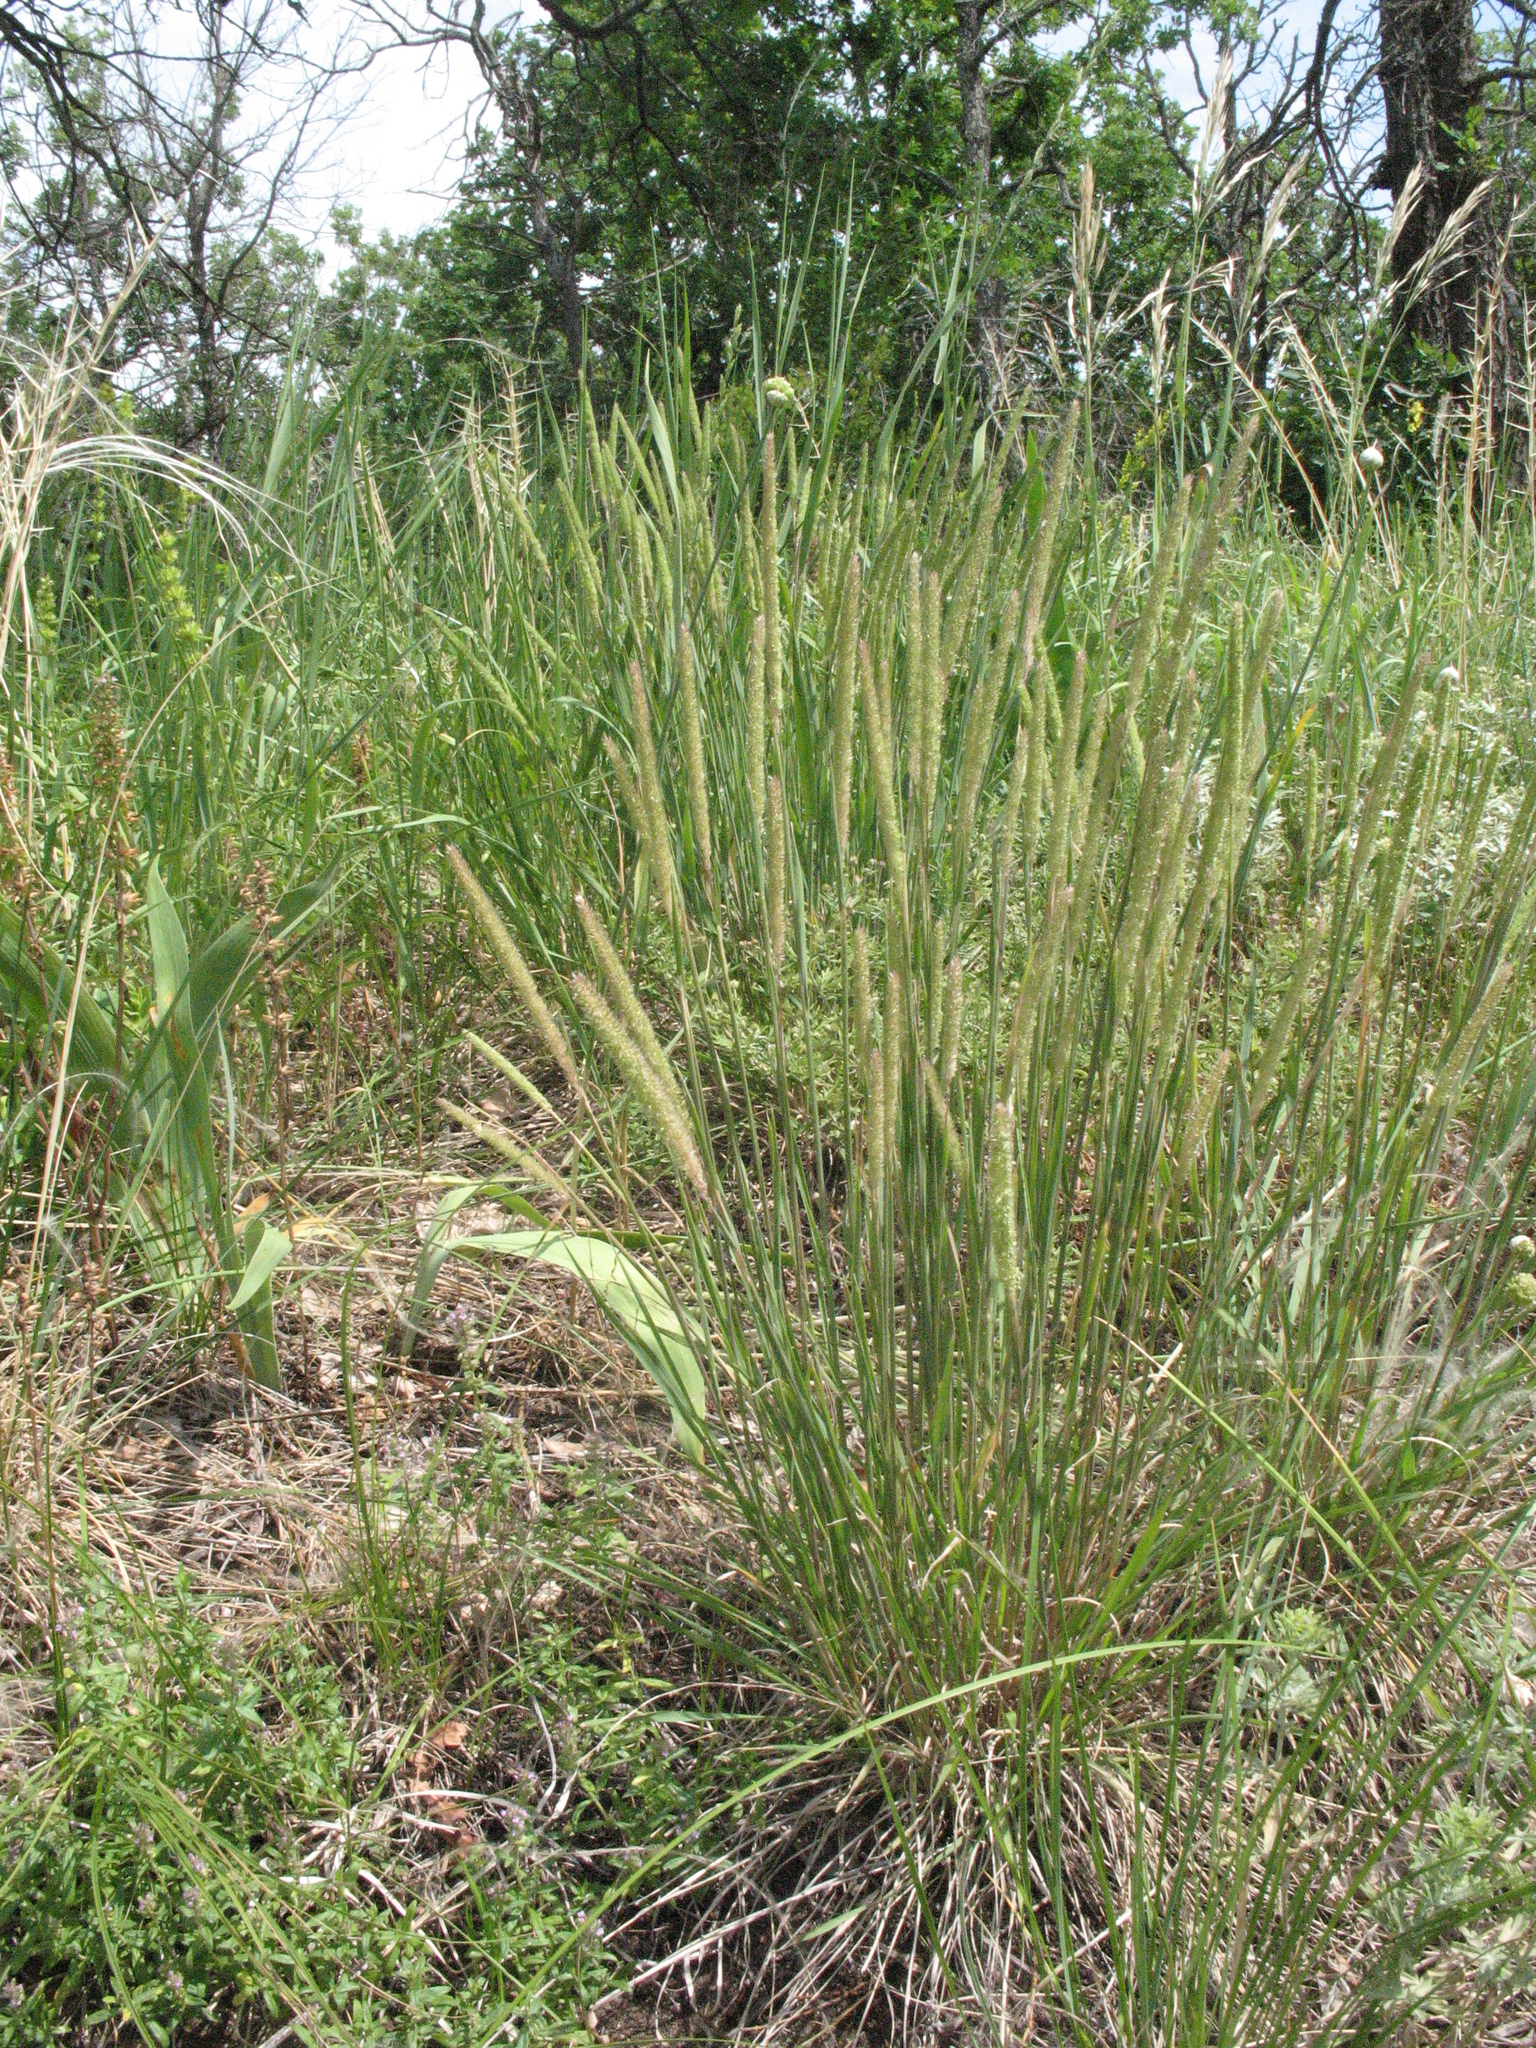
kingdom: Plantae
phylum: Tracheophyta
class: Liliopsida
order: Poales
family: Poaceae
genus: Phleum
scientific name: Phleum phleoides
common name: Purple-stem cat's-tail
